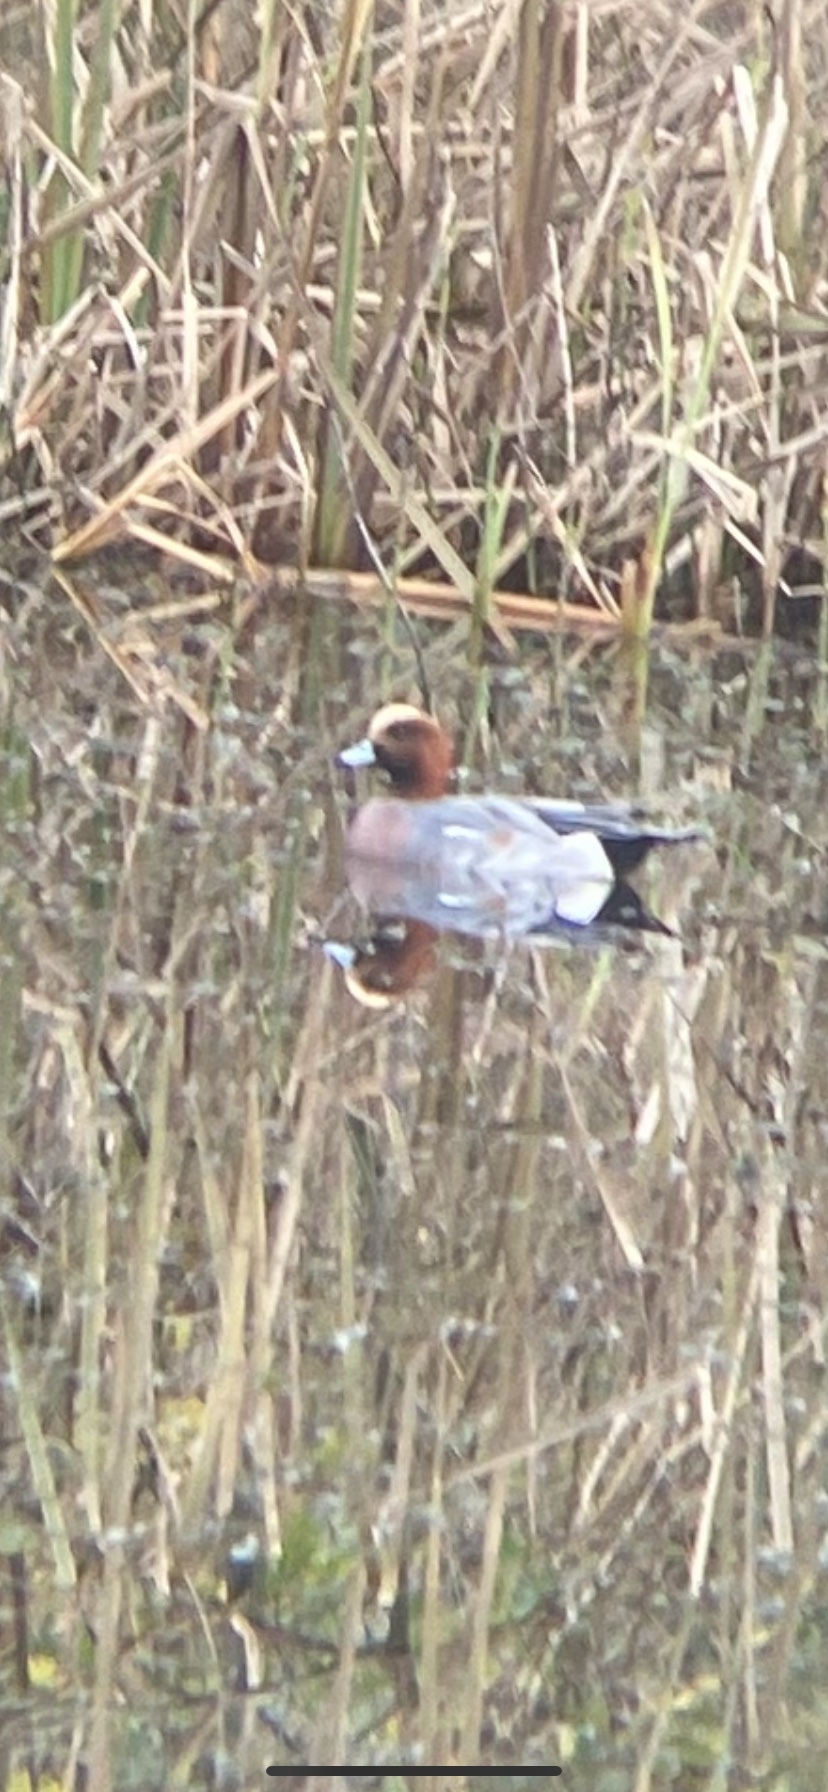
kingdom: Animalia
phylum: Chordata
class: Aves
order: Anseriformes
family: Anatidae
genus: Mareca
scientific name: Mareca penelope
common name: Eurasian wigeon
